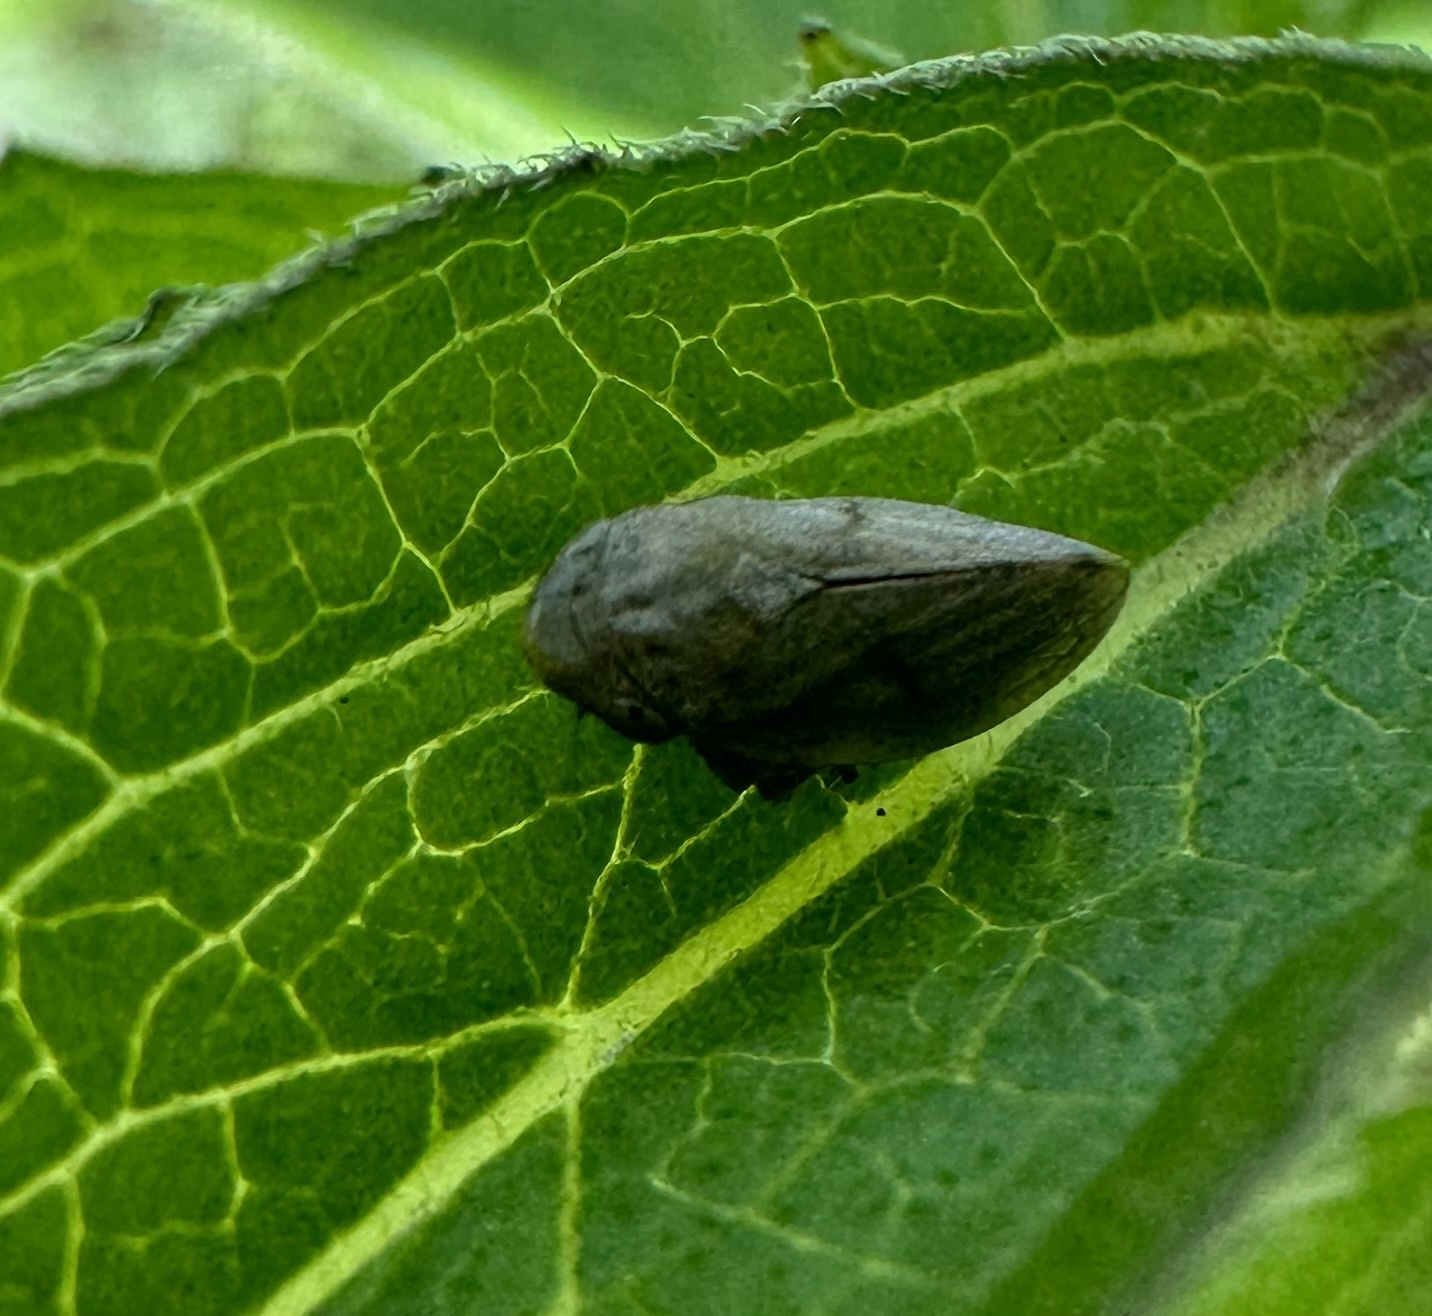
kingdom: Animalia
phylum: Arthropoda
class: Insecta
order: Hemiptera
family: Aphrophoridae
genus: Philaenus
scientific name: Philaenus spumarius
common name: Meadow spittlebug
